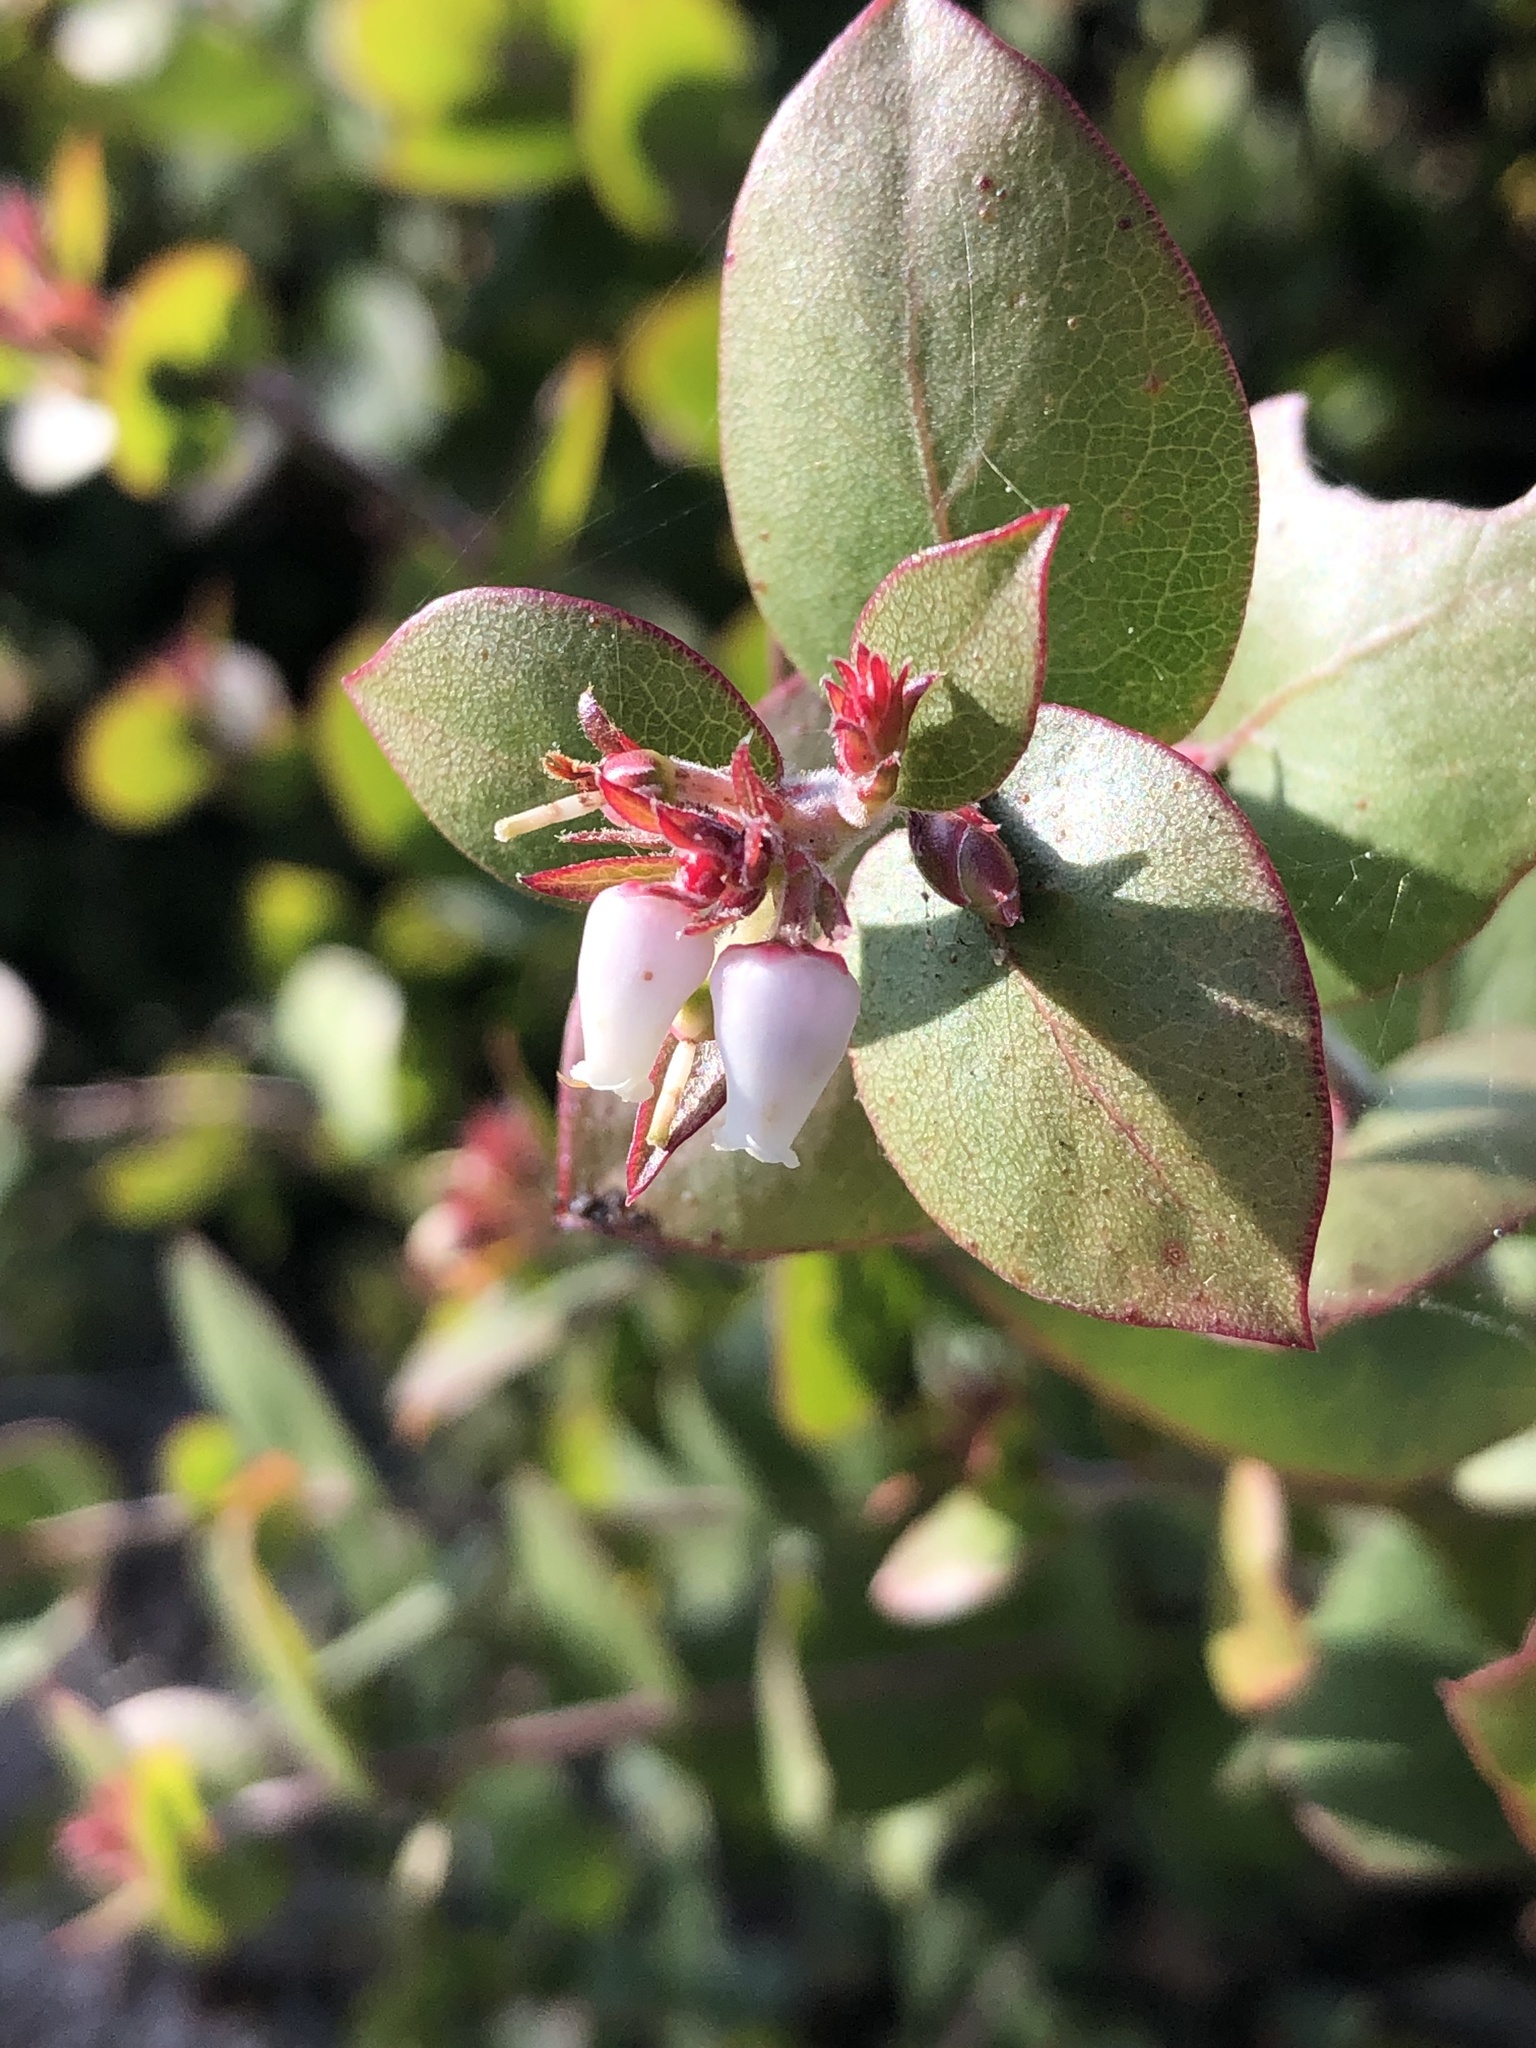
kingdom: Plantae
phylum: Tracheophyta
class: Magnoliopsida
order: Ericales
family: Ericaceae
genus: Arctostaphylos
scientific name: Arctostaphylos osoensis
